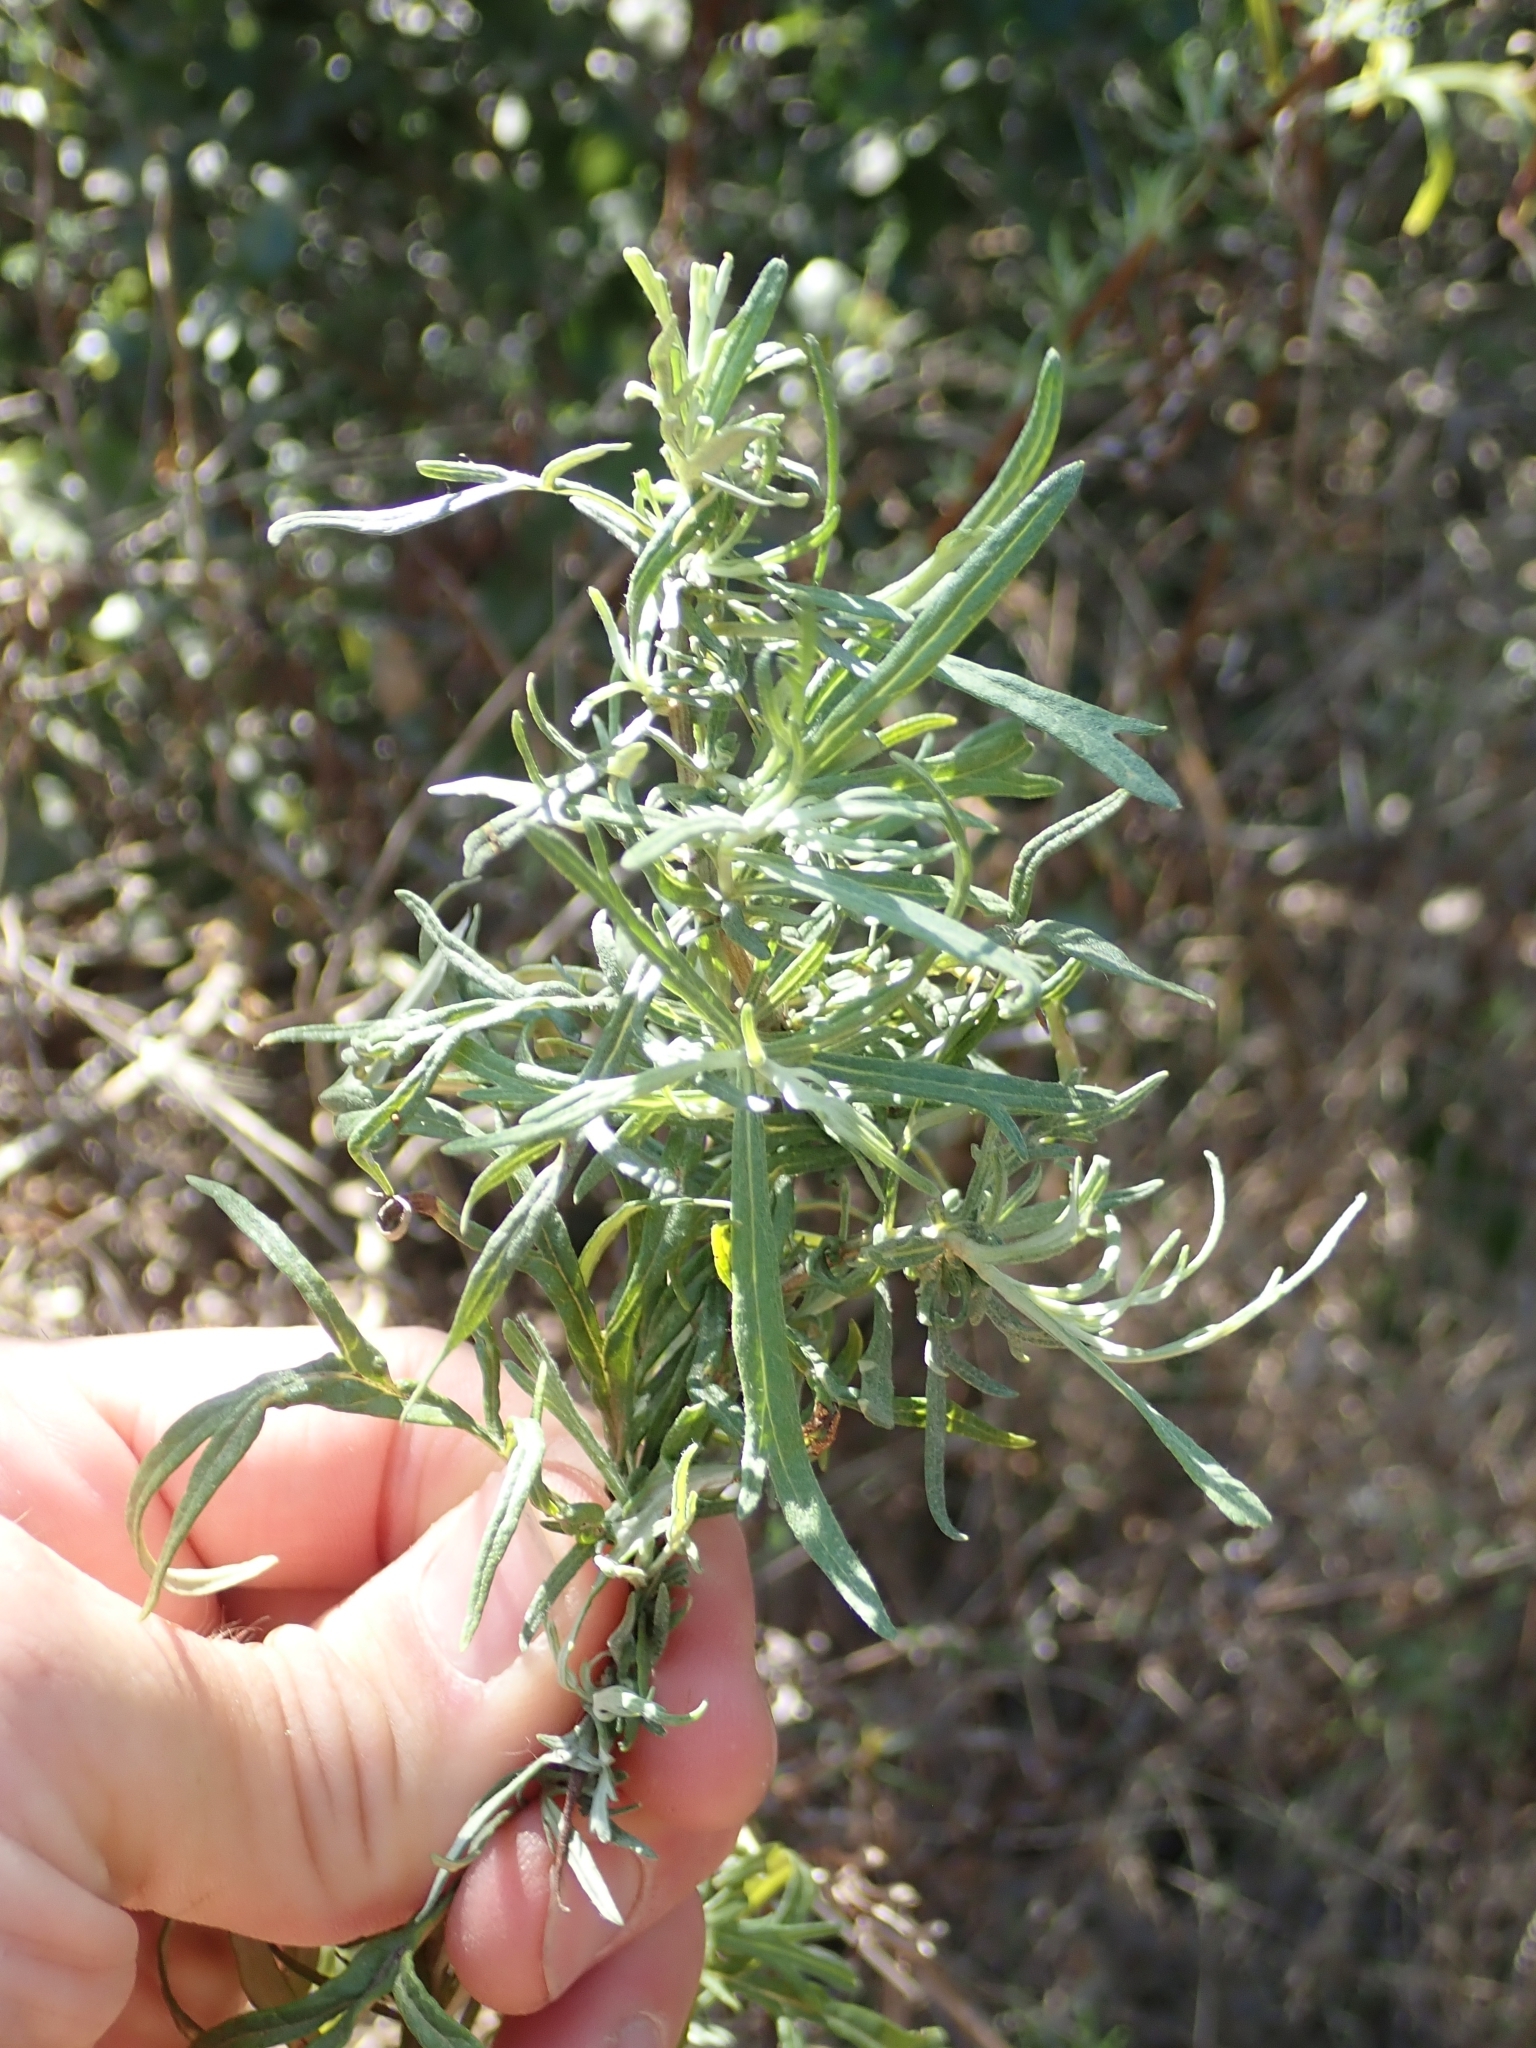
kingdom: Plantae
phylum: Tracheophyta
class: Magnoliopsida
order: Asterales
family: Asteraceae
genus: Artemisia
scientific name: Artemisia palmeri
